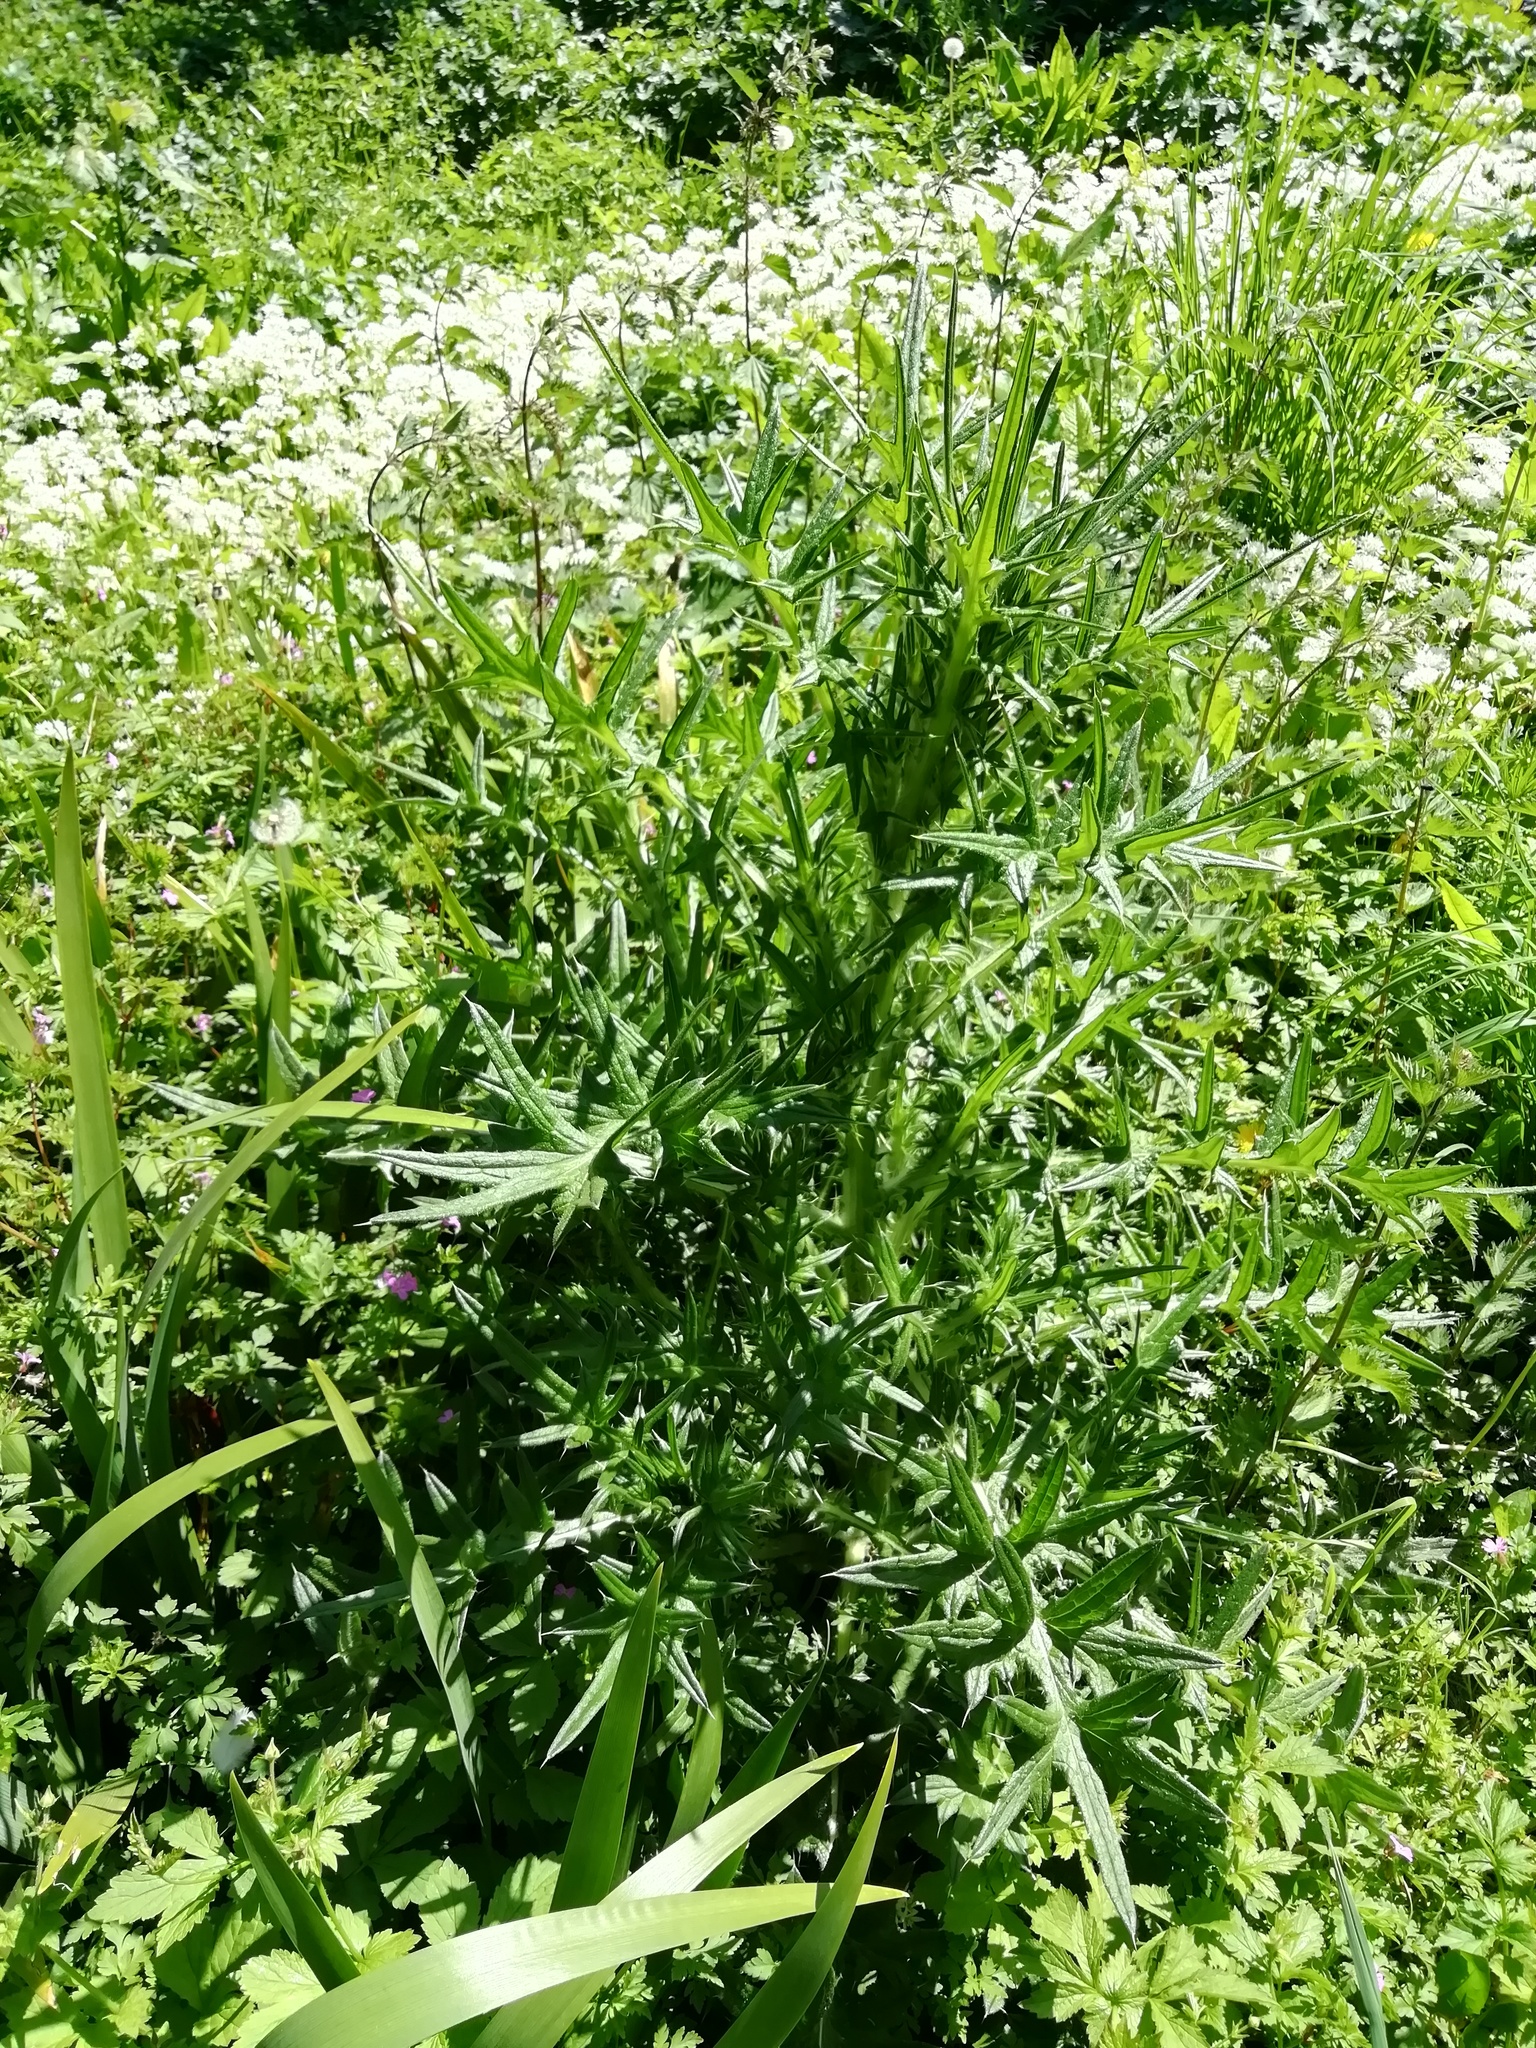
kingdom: Plantae
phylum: Tracheophyta
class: Magnoliopsida
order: Asterales
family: Asteraceae
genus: Cirsium
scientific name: Cirsium vulgare
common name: Bull thistle
